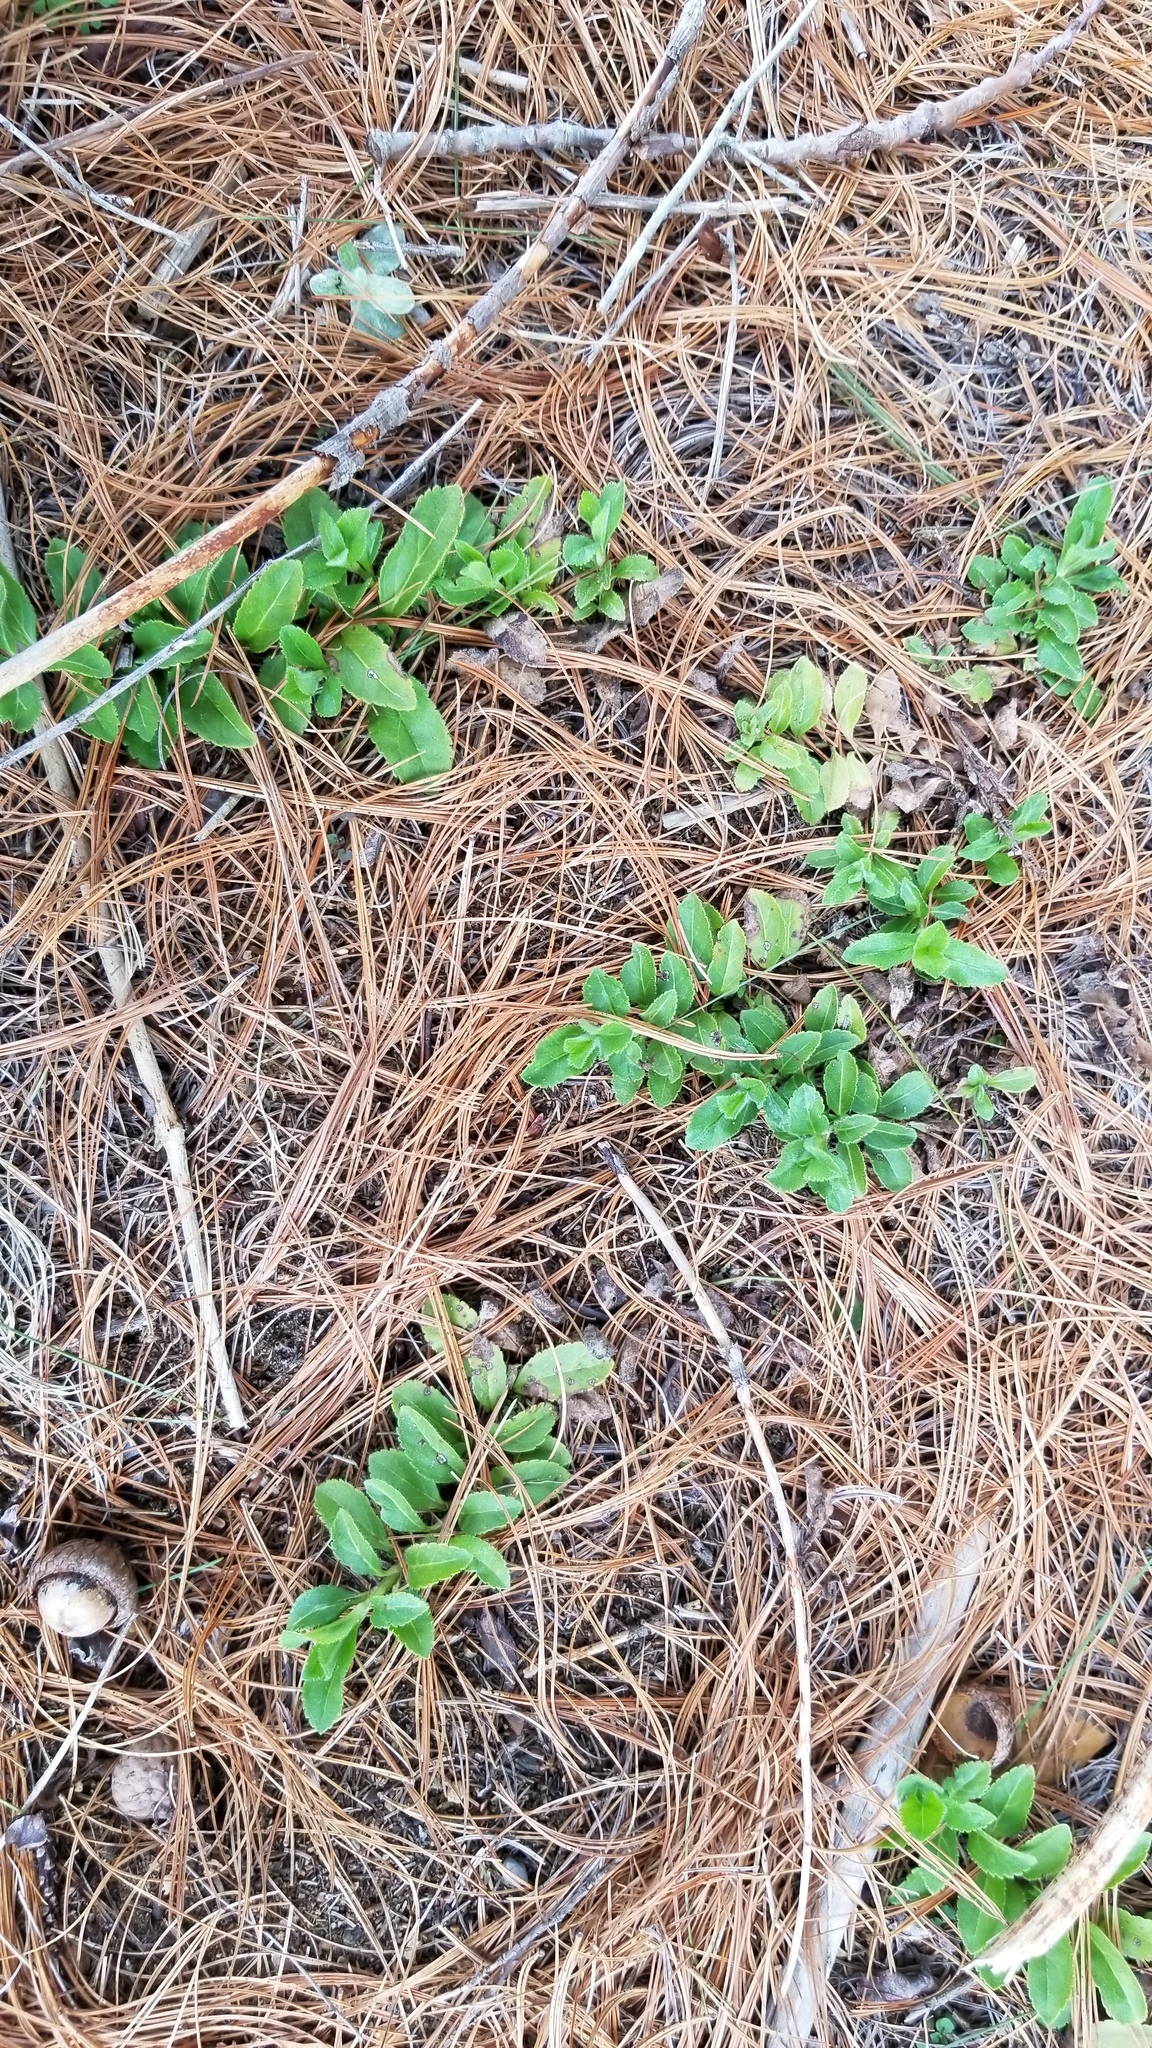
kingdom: Plantae
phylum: Tracheophyta
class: Magnoliopsida
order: Lamiales
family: Plantaginaceae
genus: Veronica
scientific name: Veronica officinalis
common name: Common speedwell
